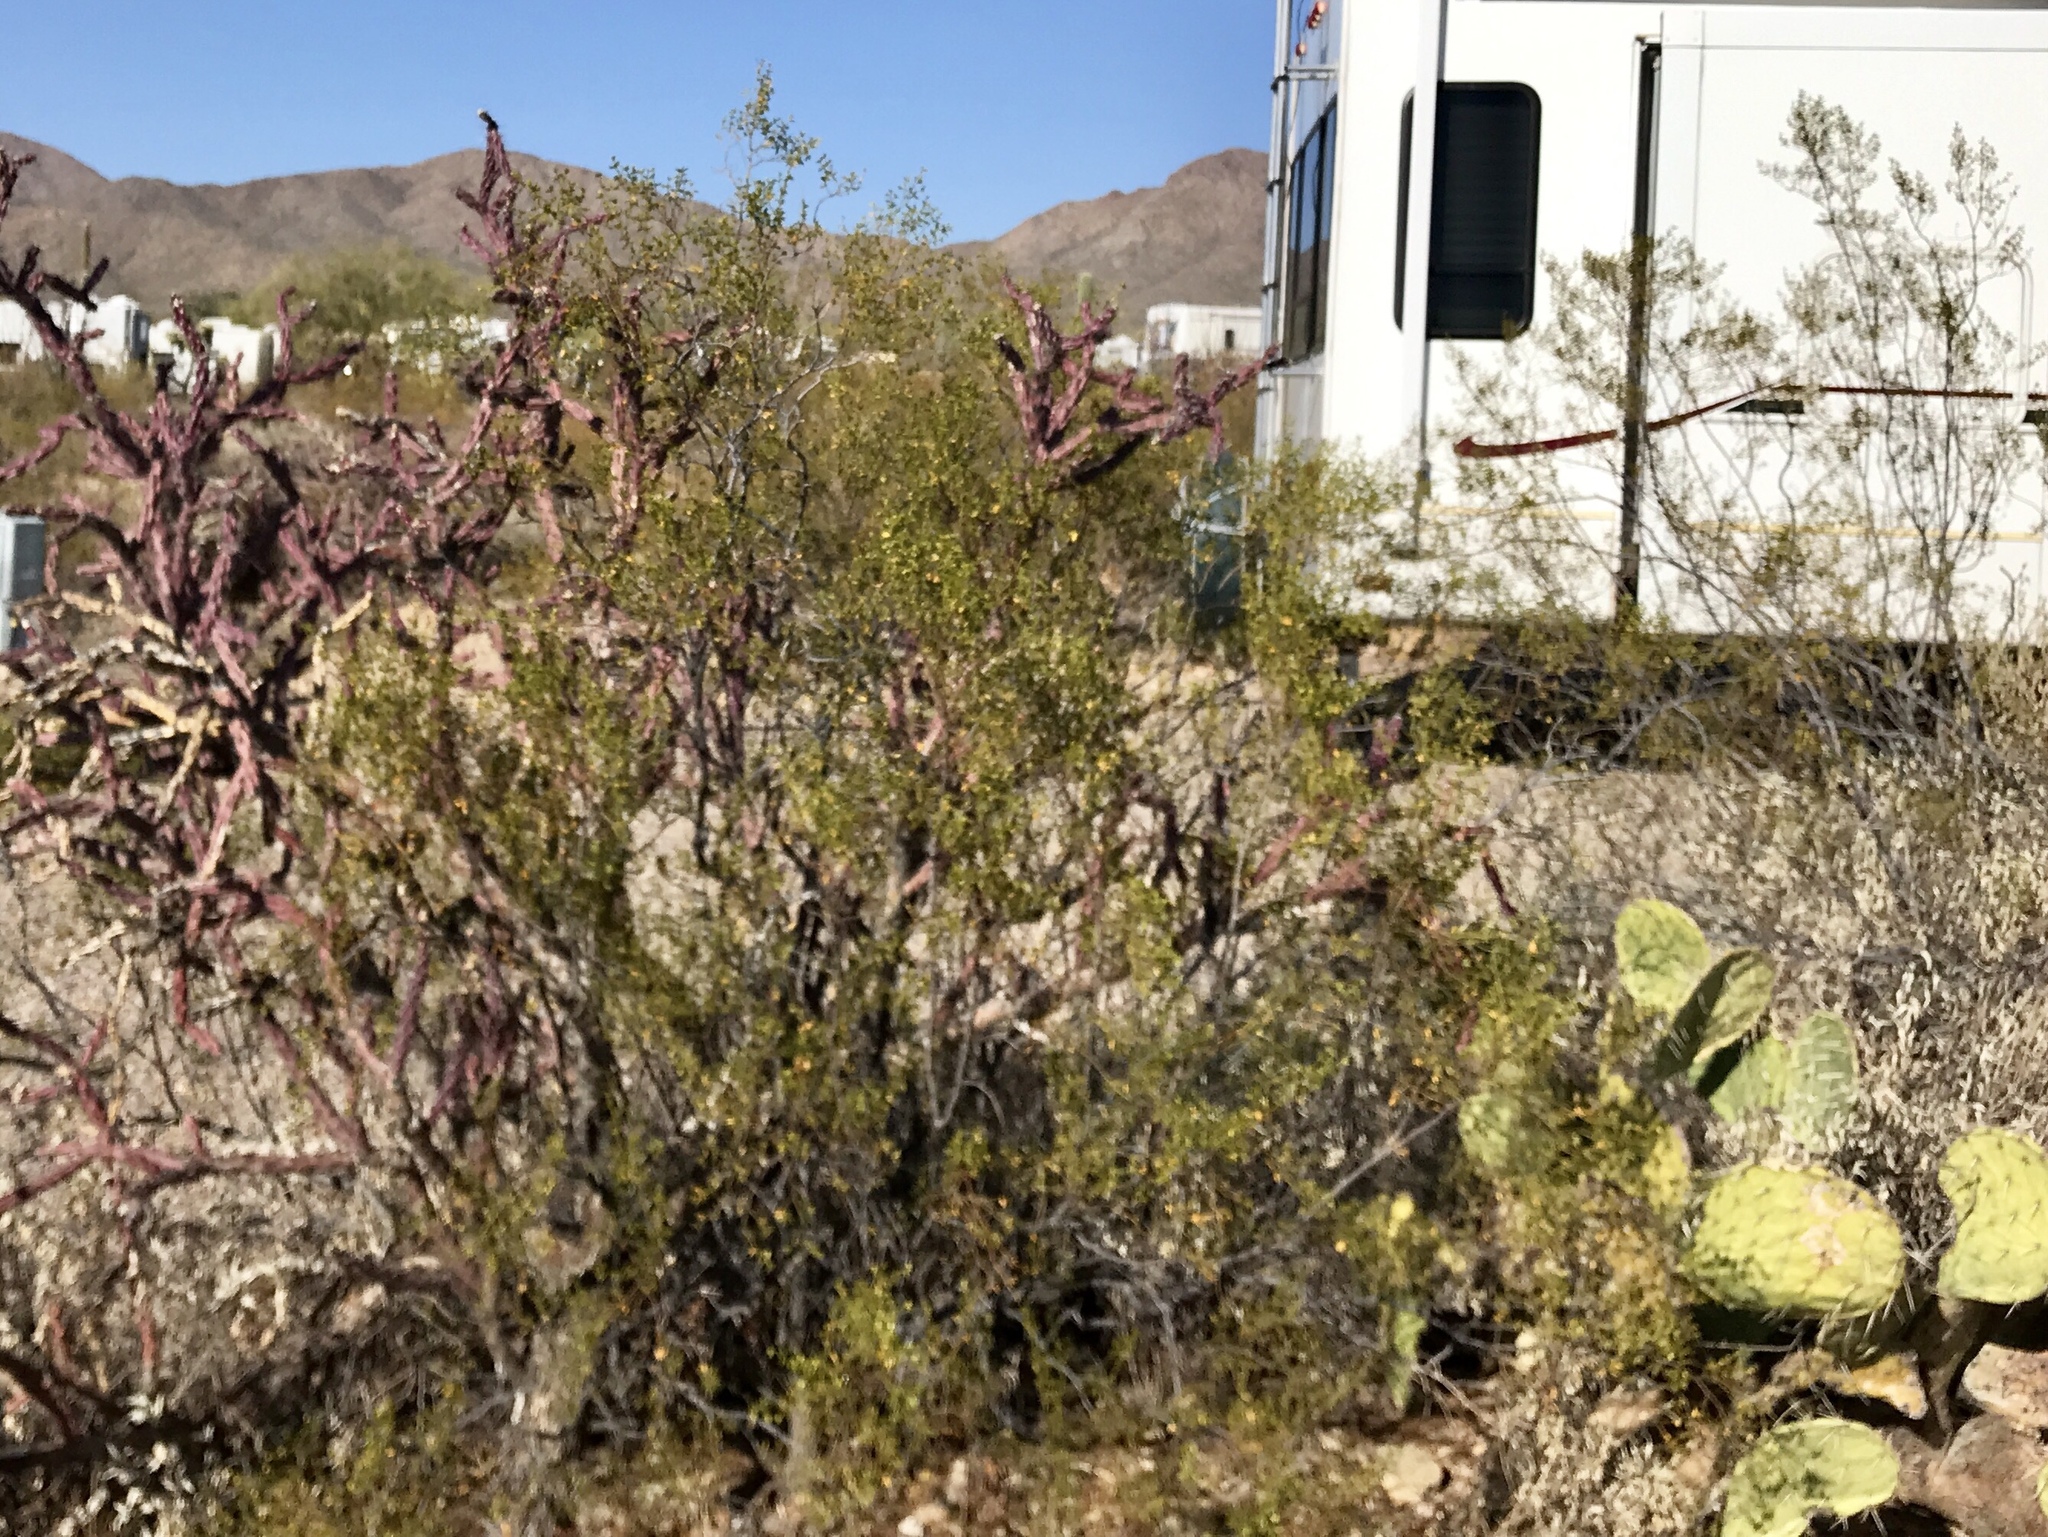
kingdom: Plantae
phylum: Tracheophyta
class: Magnoliopsida
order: Zygophyllales
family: Zygophyllaceae
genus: Larrea
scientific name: Larrea tridentata
